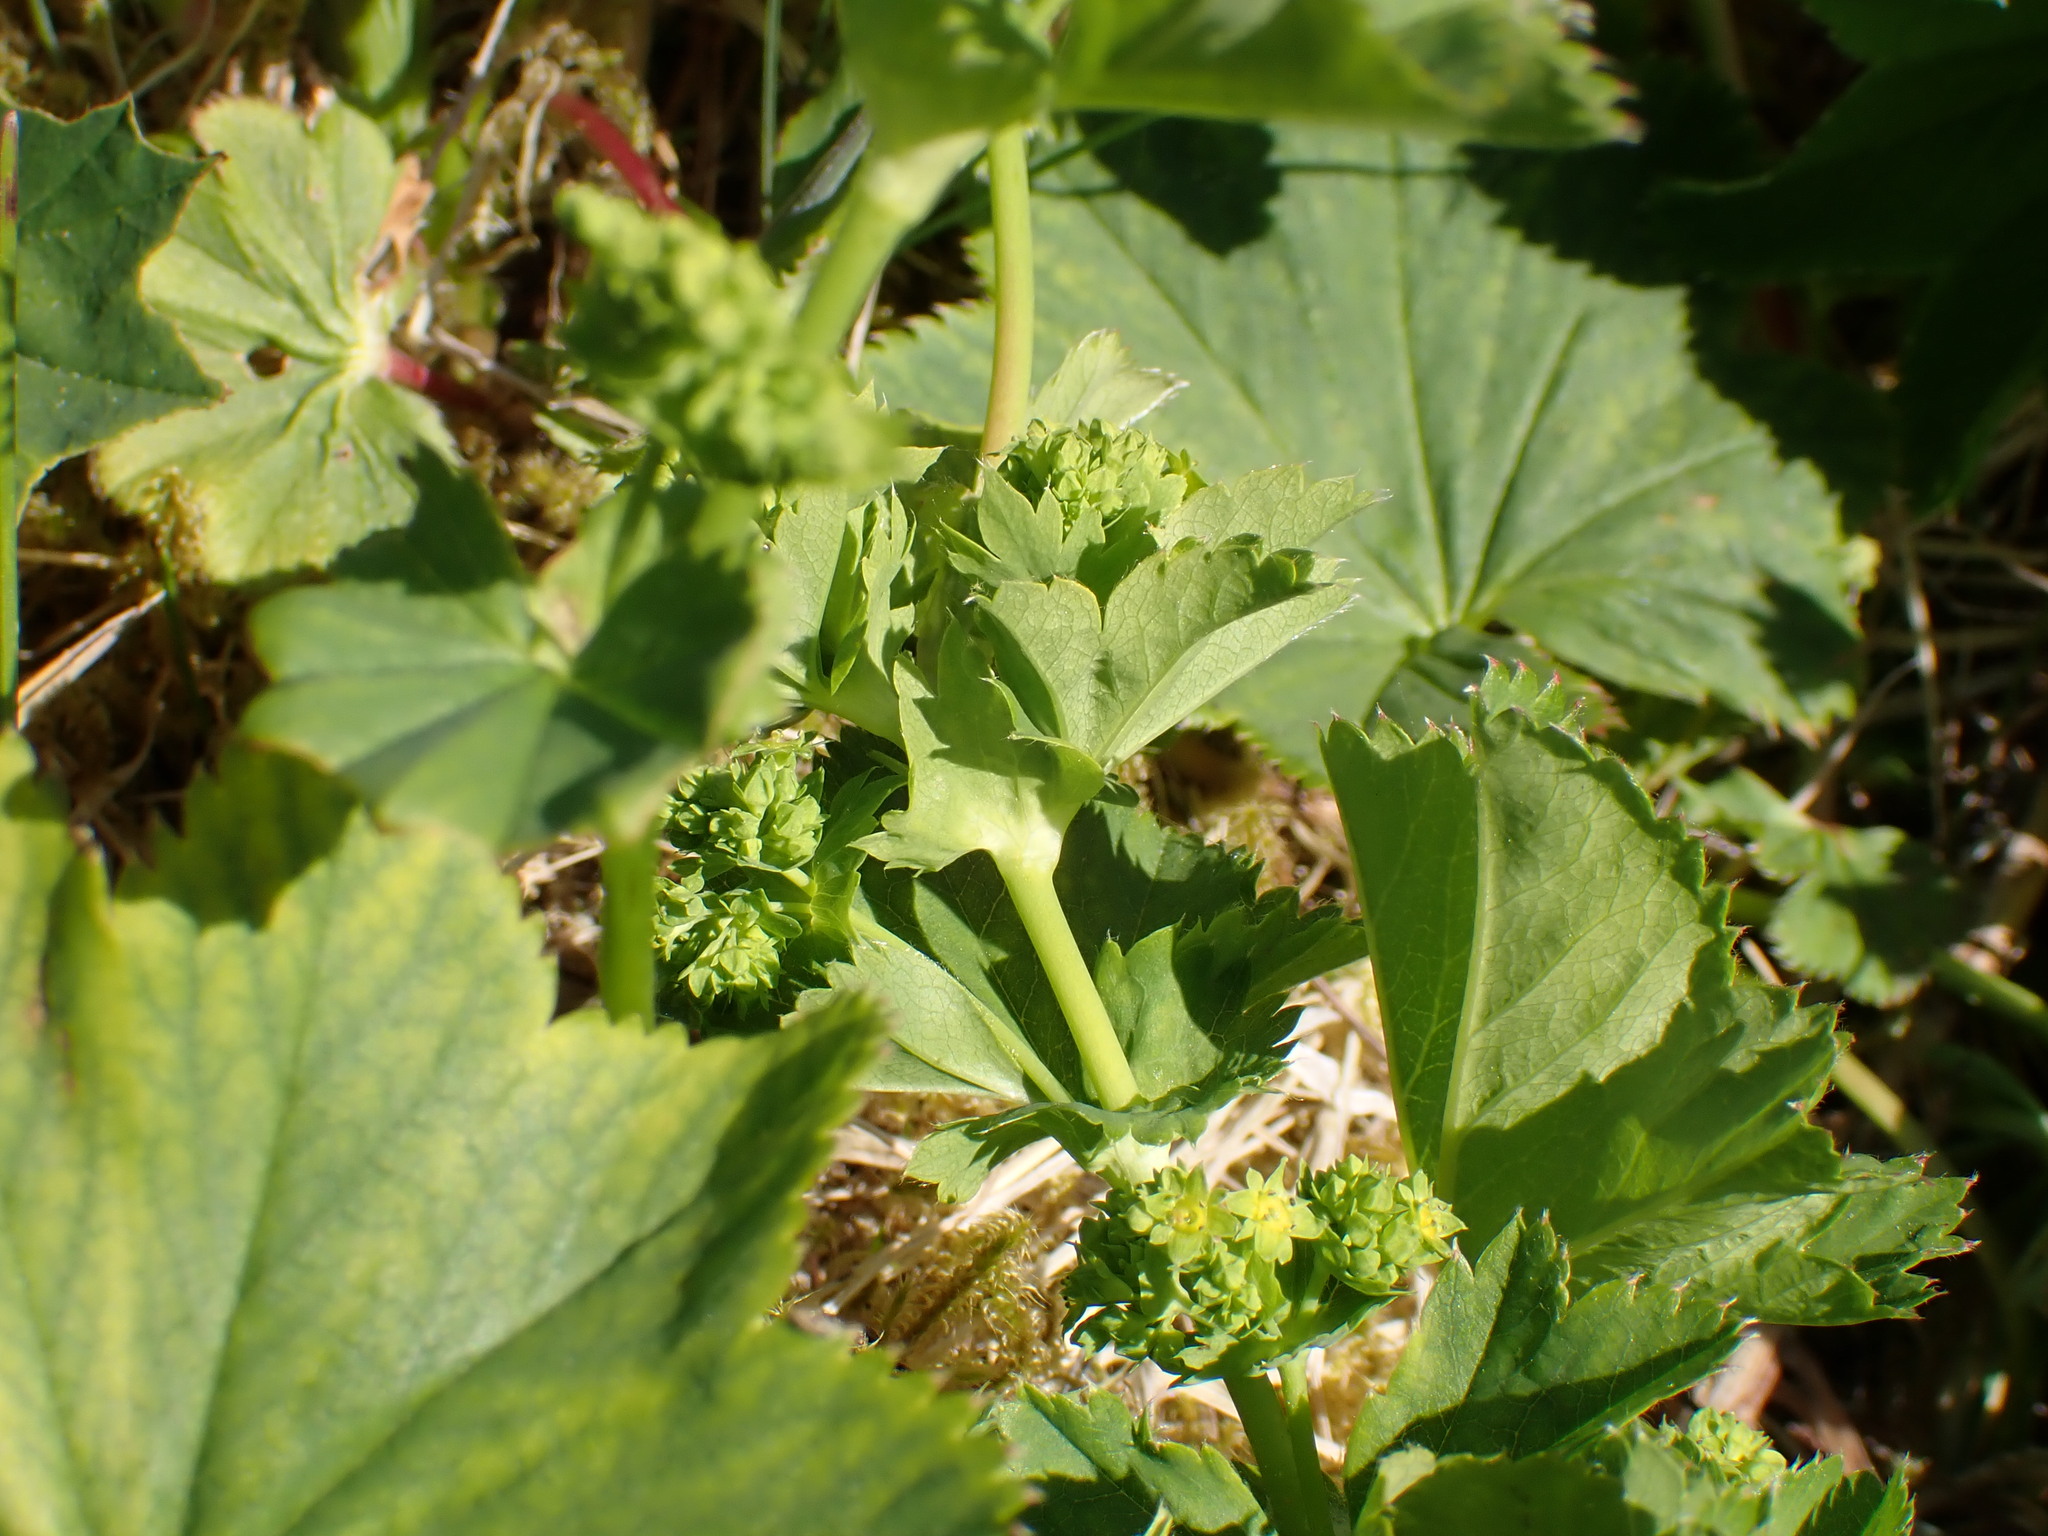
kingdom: Fungi
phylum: Basidiomycota
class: Pucciniomycetes
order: Pucciniales
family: Phragmidiaceae
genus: Trachyspora
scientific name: Trachyspora alchemillae
